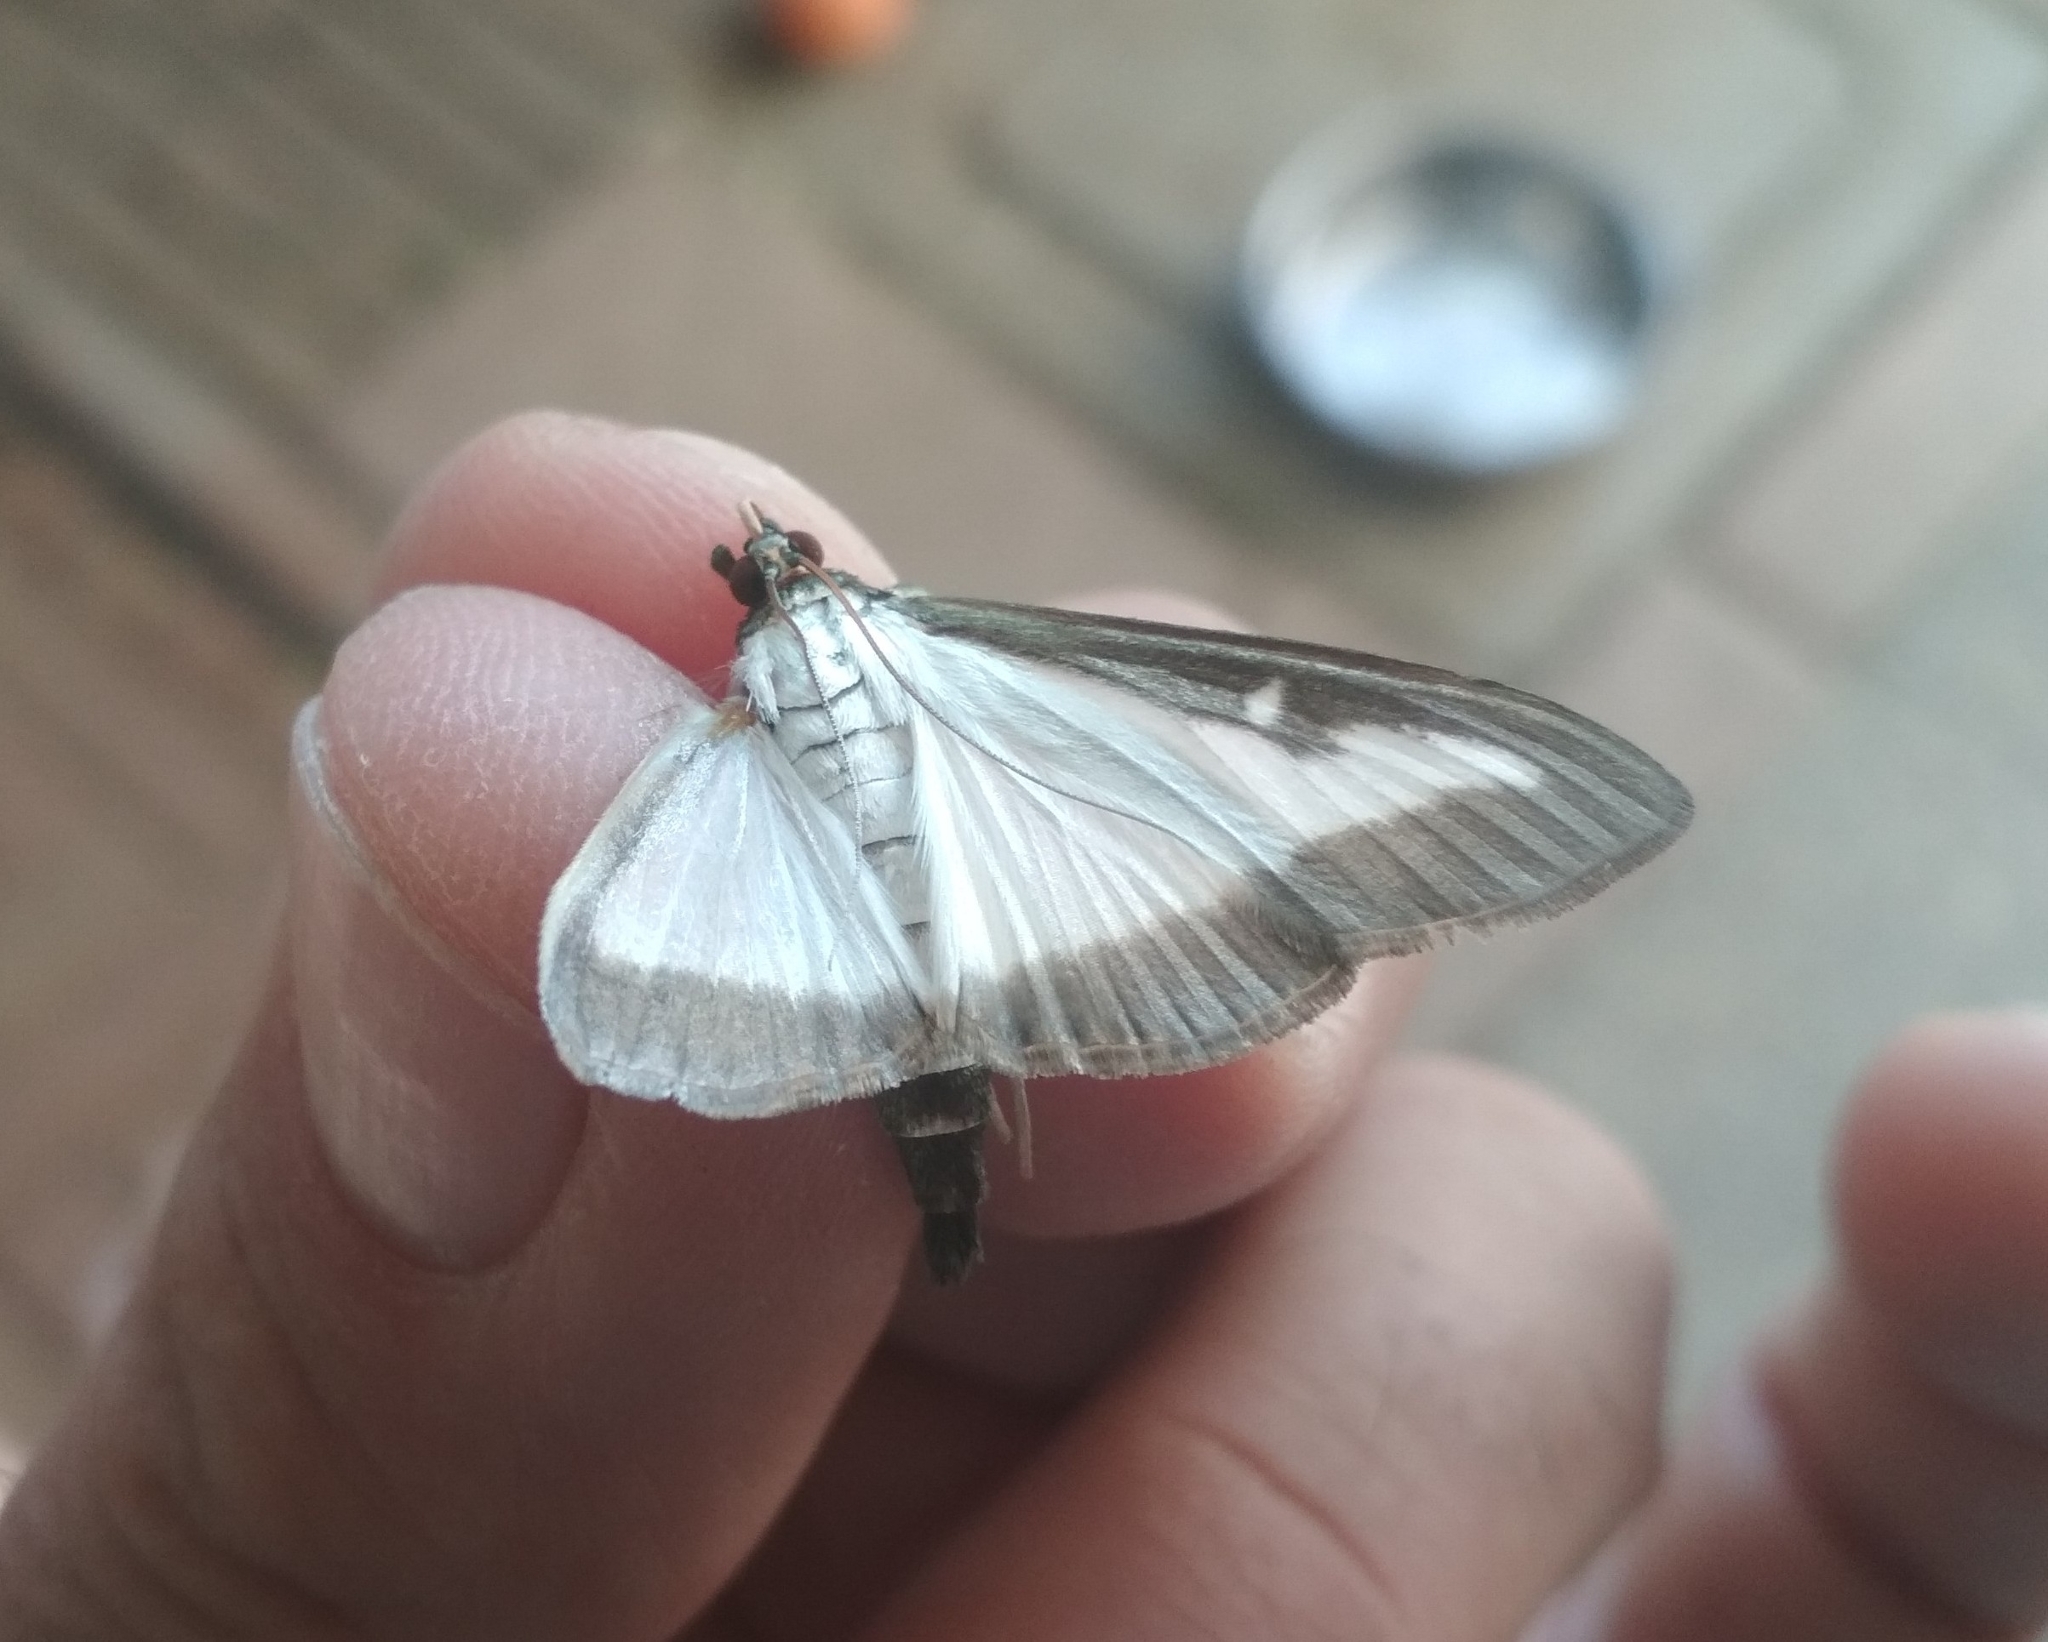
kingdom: Animalia
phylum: Arthropoda
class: Insecta
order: Lepidoptera
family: Crambidae
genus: Cydalima
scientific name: Cydalima perspectalis
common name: Box tree moth
